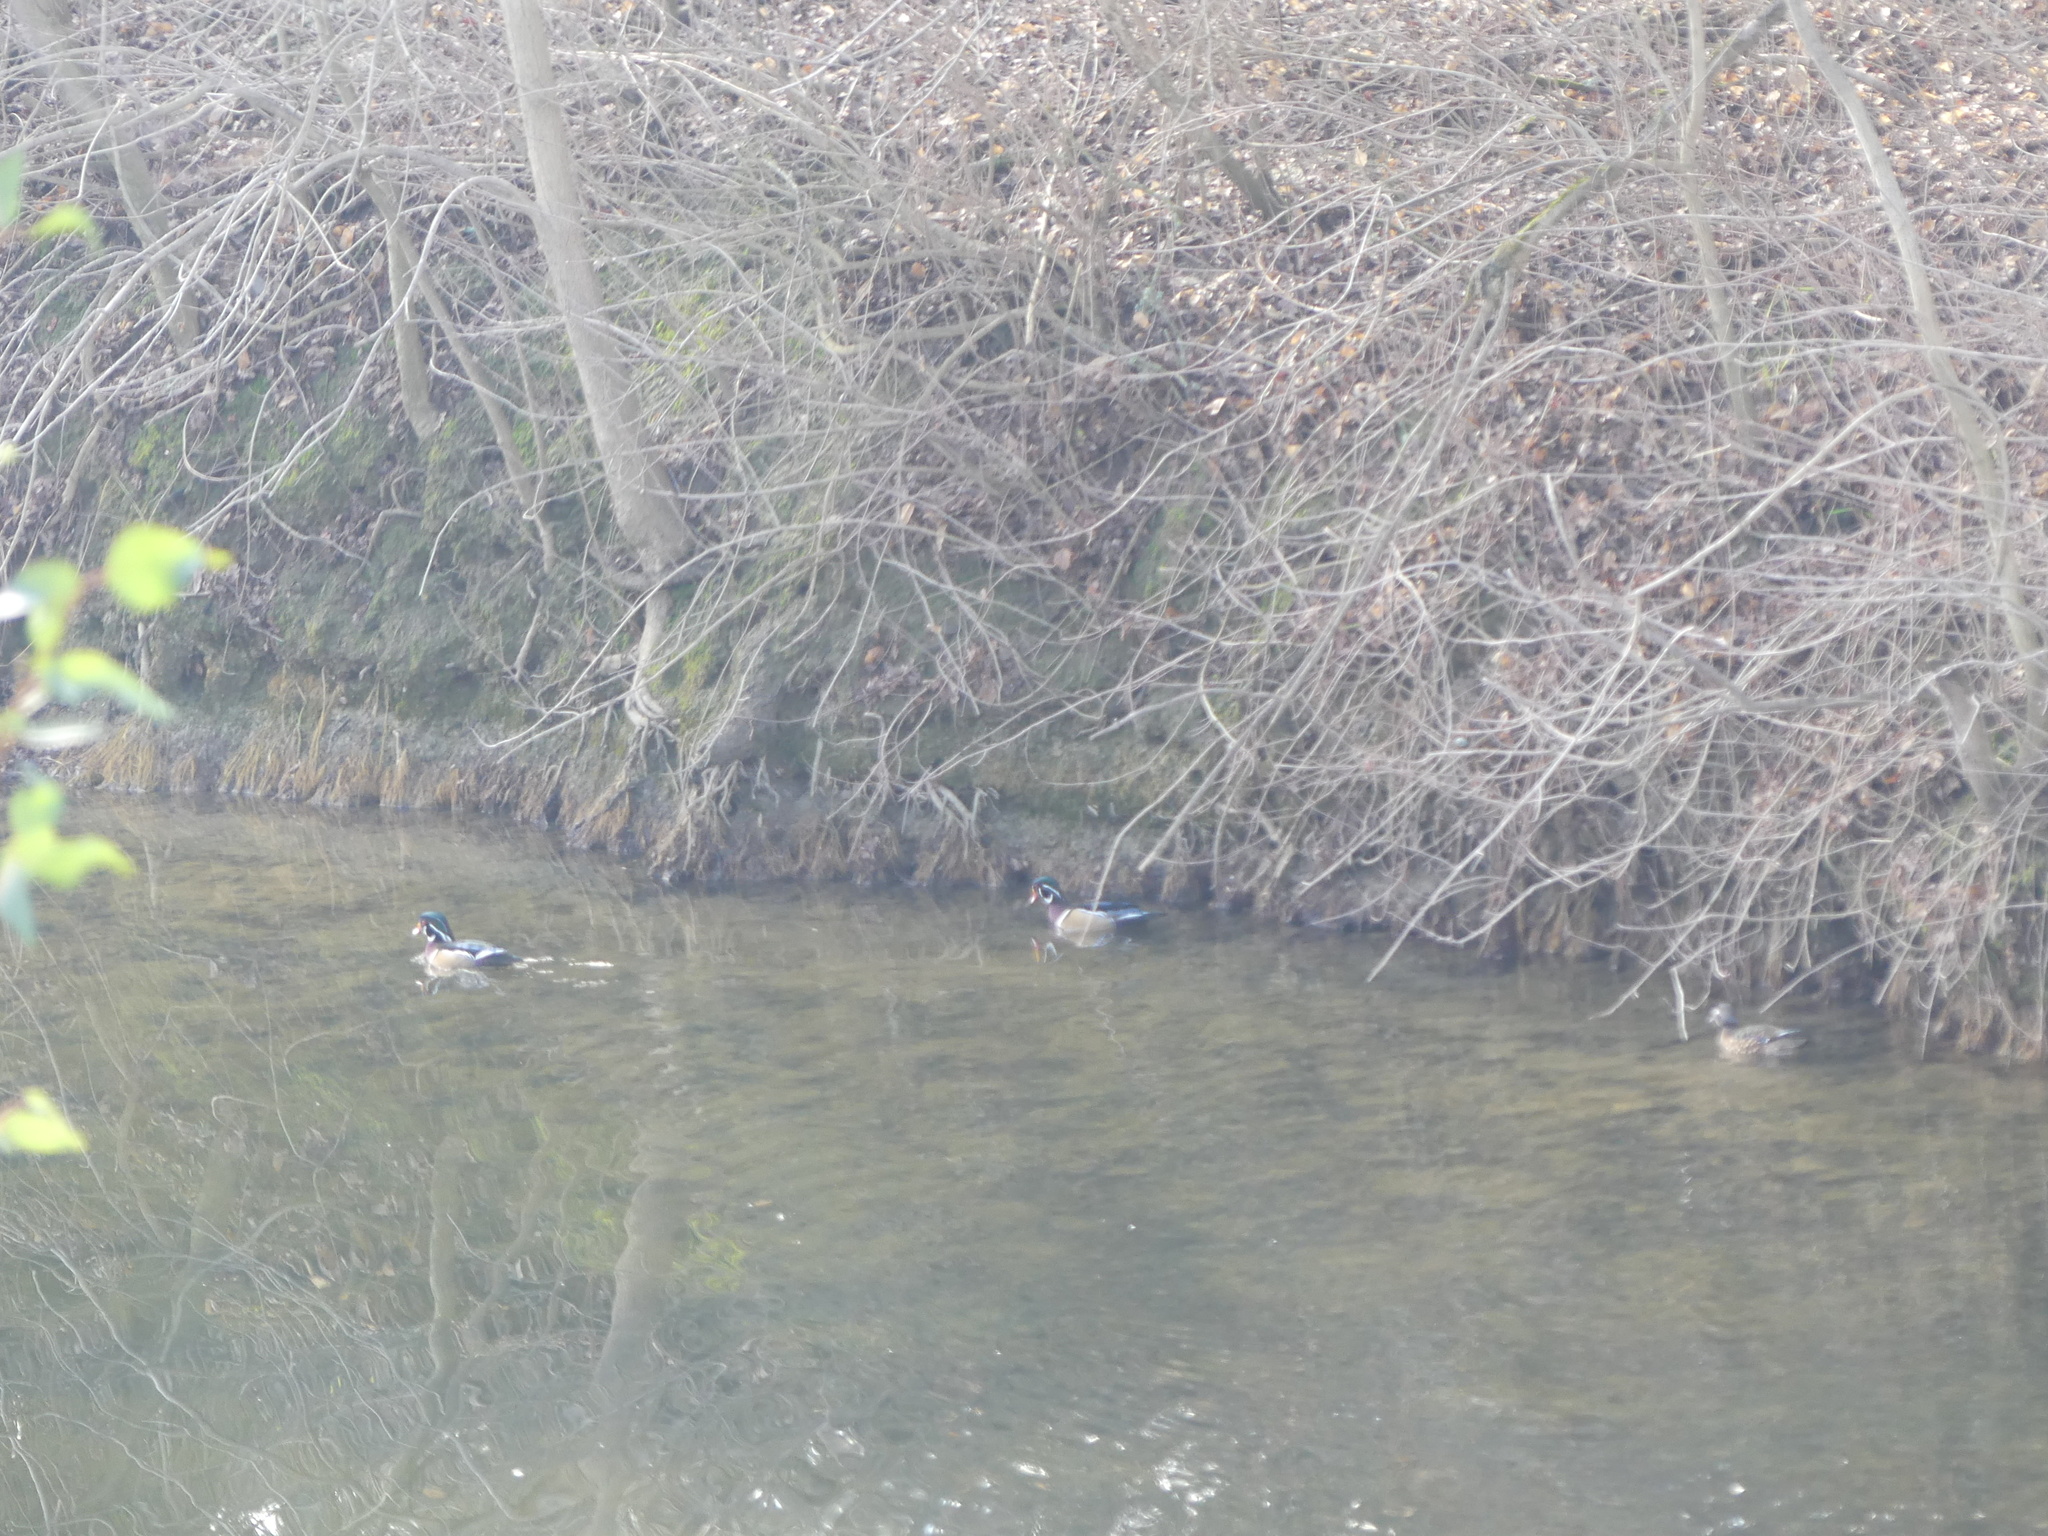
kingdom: Animalia
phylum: Chordata
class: Aves
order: Anseriformes
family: Anatidae
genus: Aix
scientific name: Aix sponsa
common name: Wood duck
